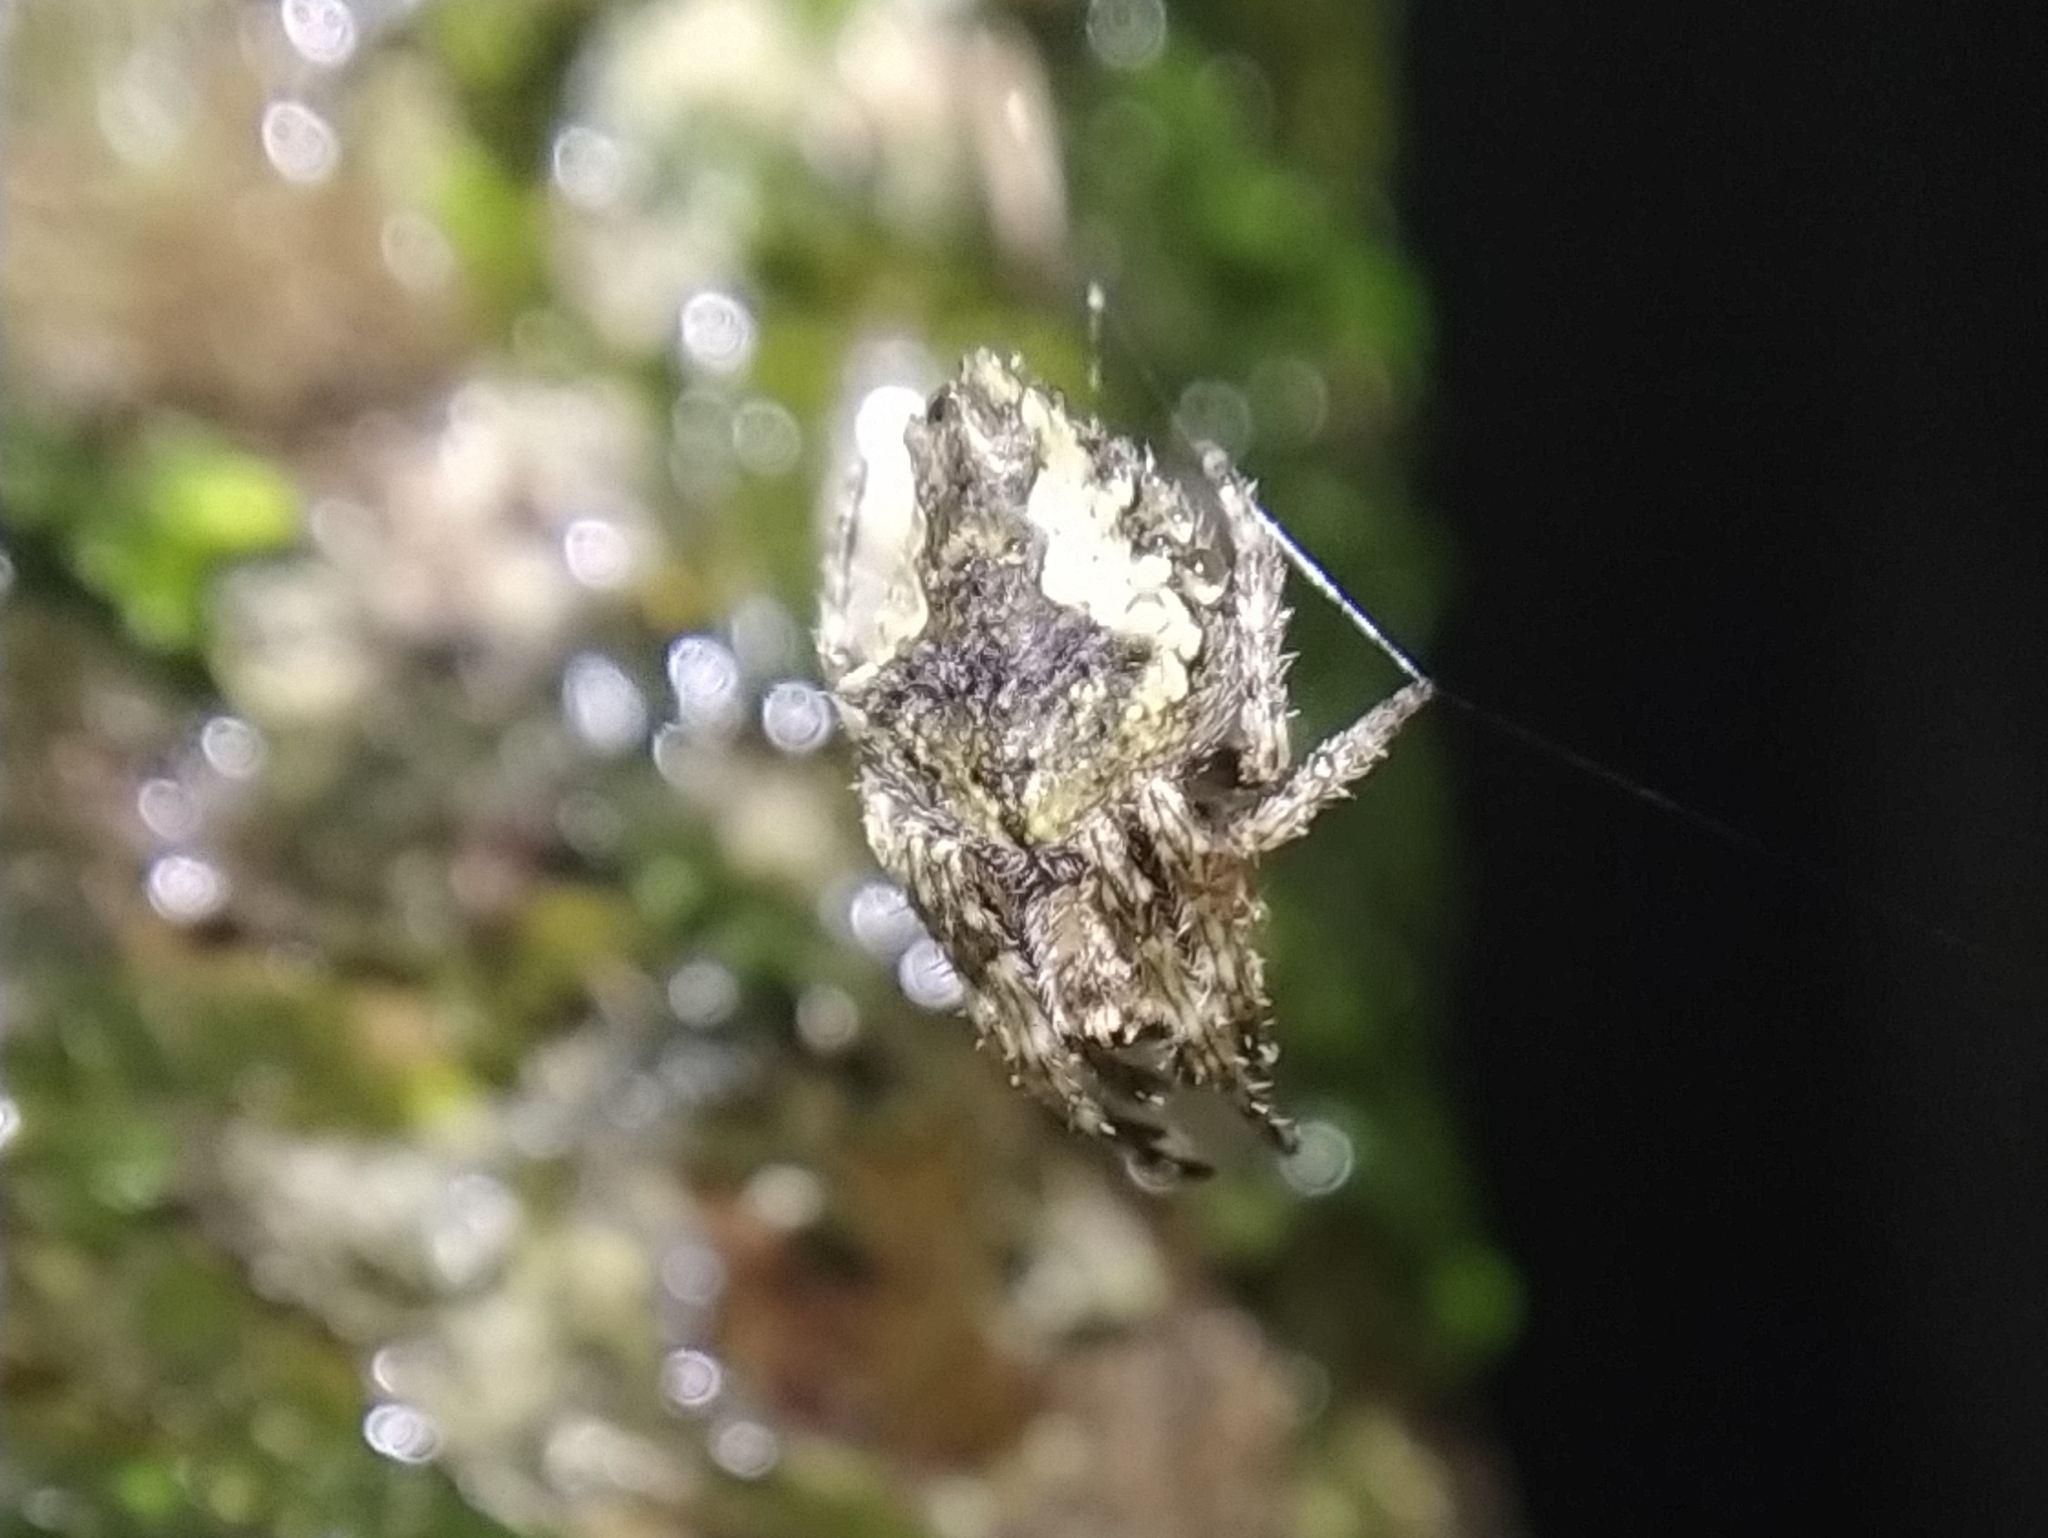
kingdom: Animalia
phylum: Arthropoda
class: Arachnida
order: Araneae
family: Araneidae
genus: Eriophora
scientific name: Eriophora pustulosa
